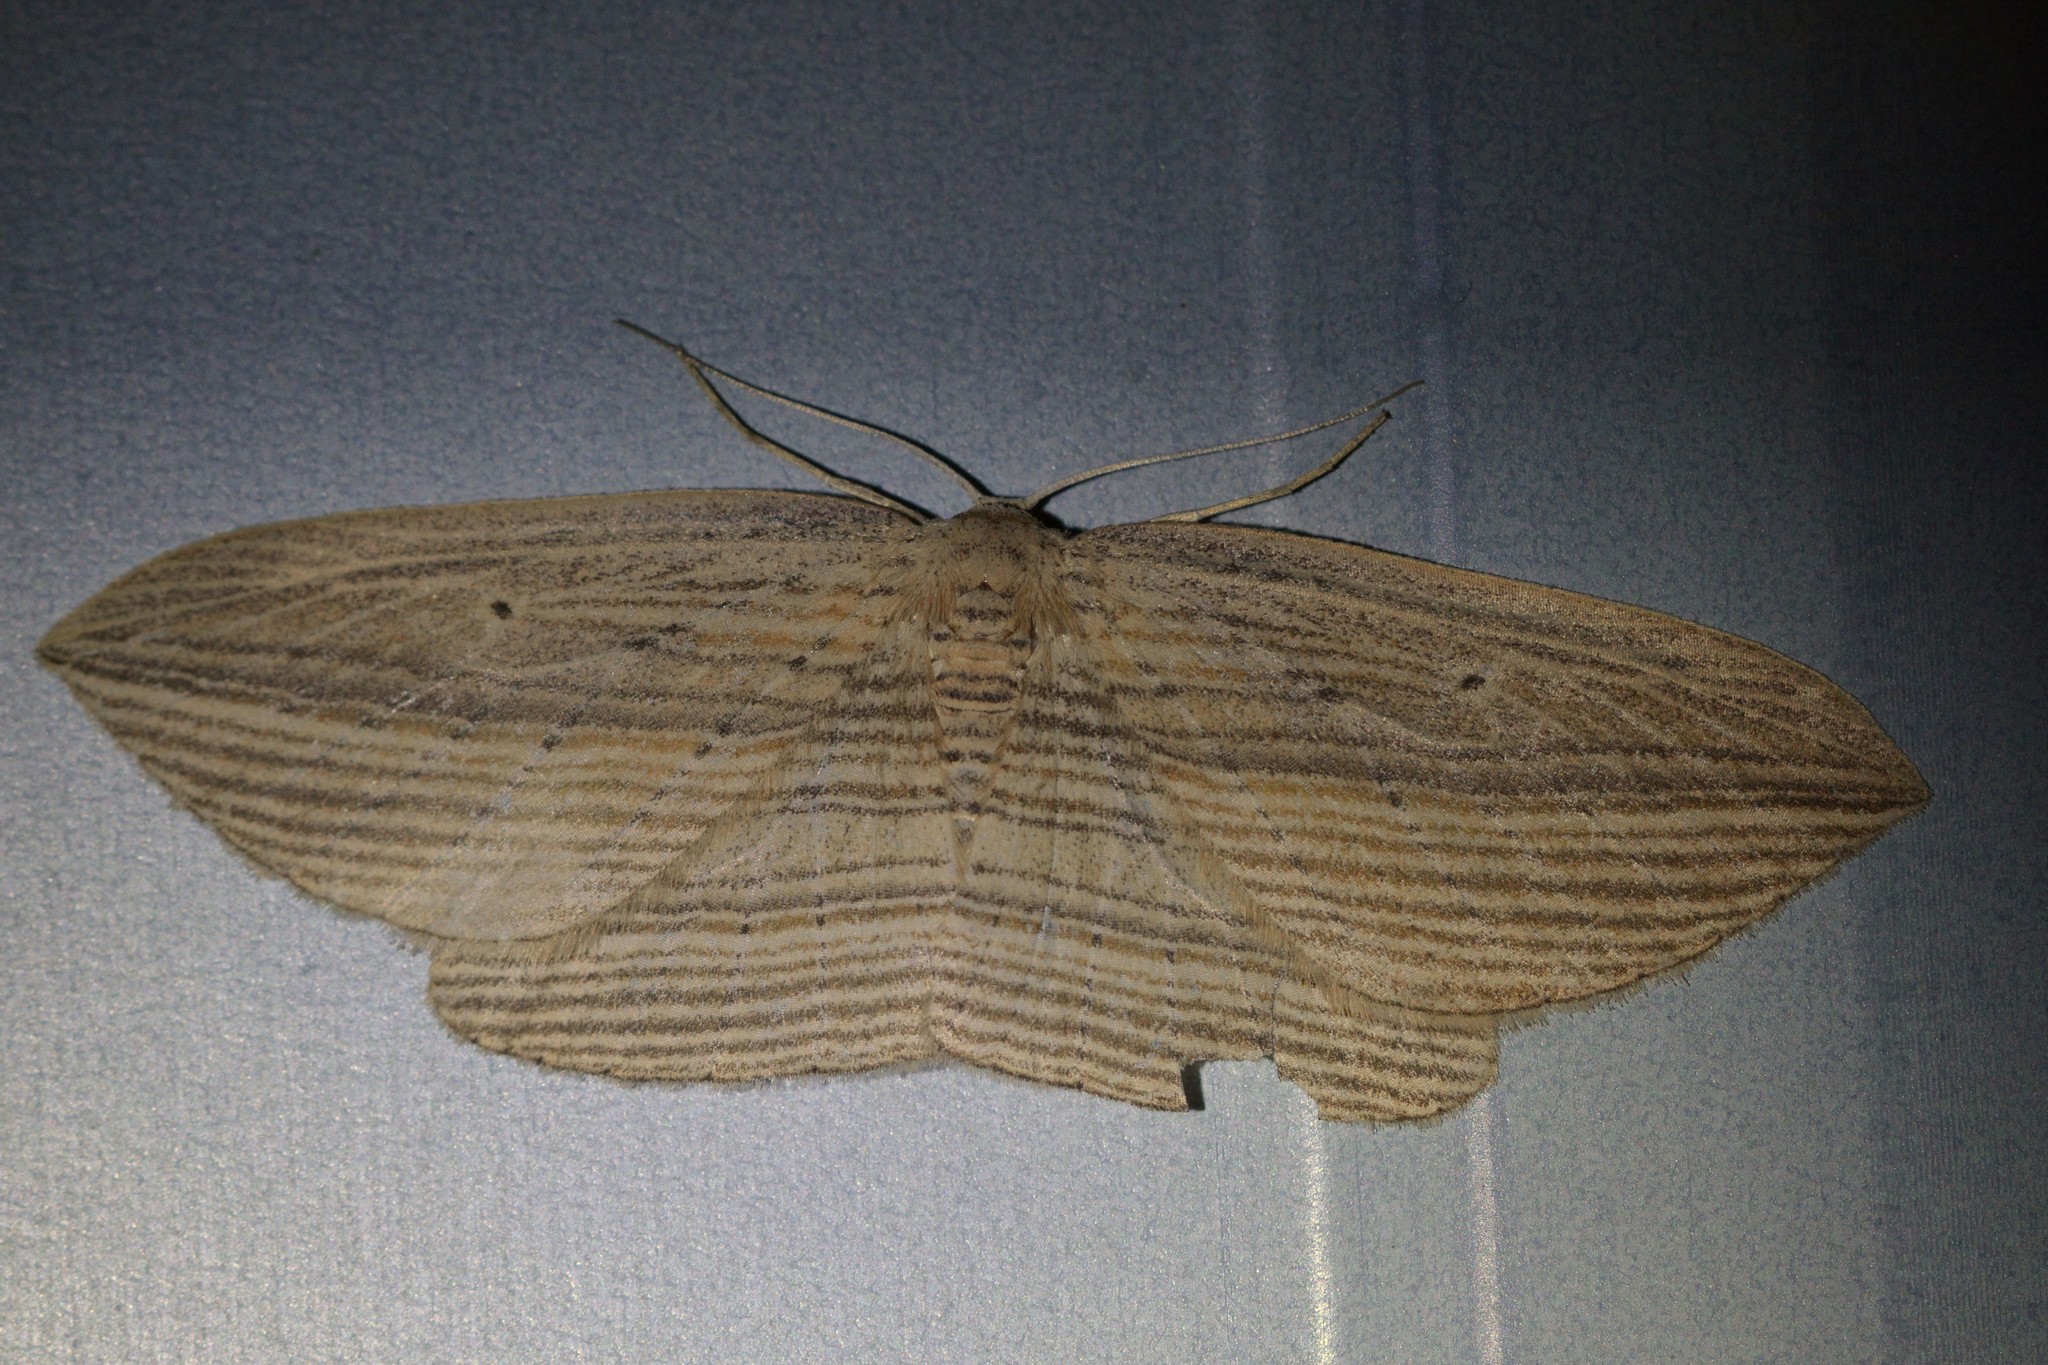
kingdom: Animalia
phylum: Arthropoda
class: Insecta
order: Lepidoptera
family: Geometridae
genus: Epiphryne
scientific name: Epiphryne verriculata
